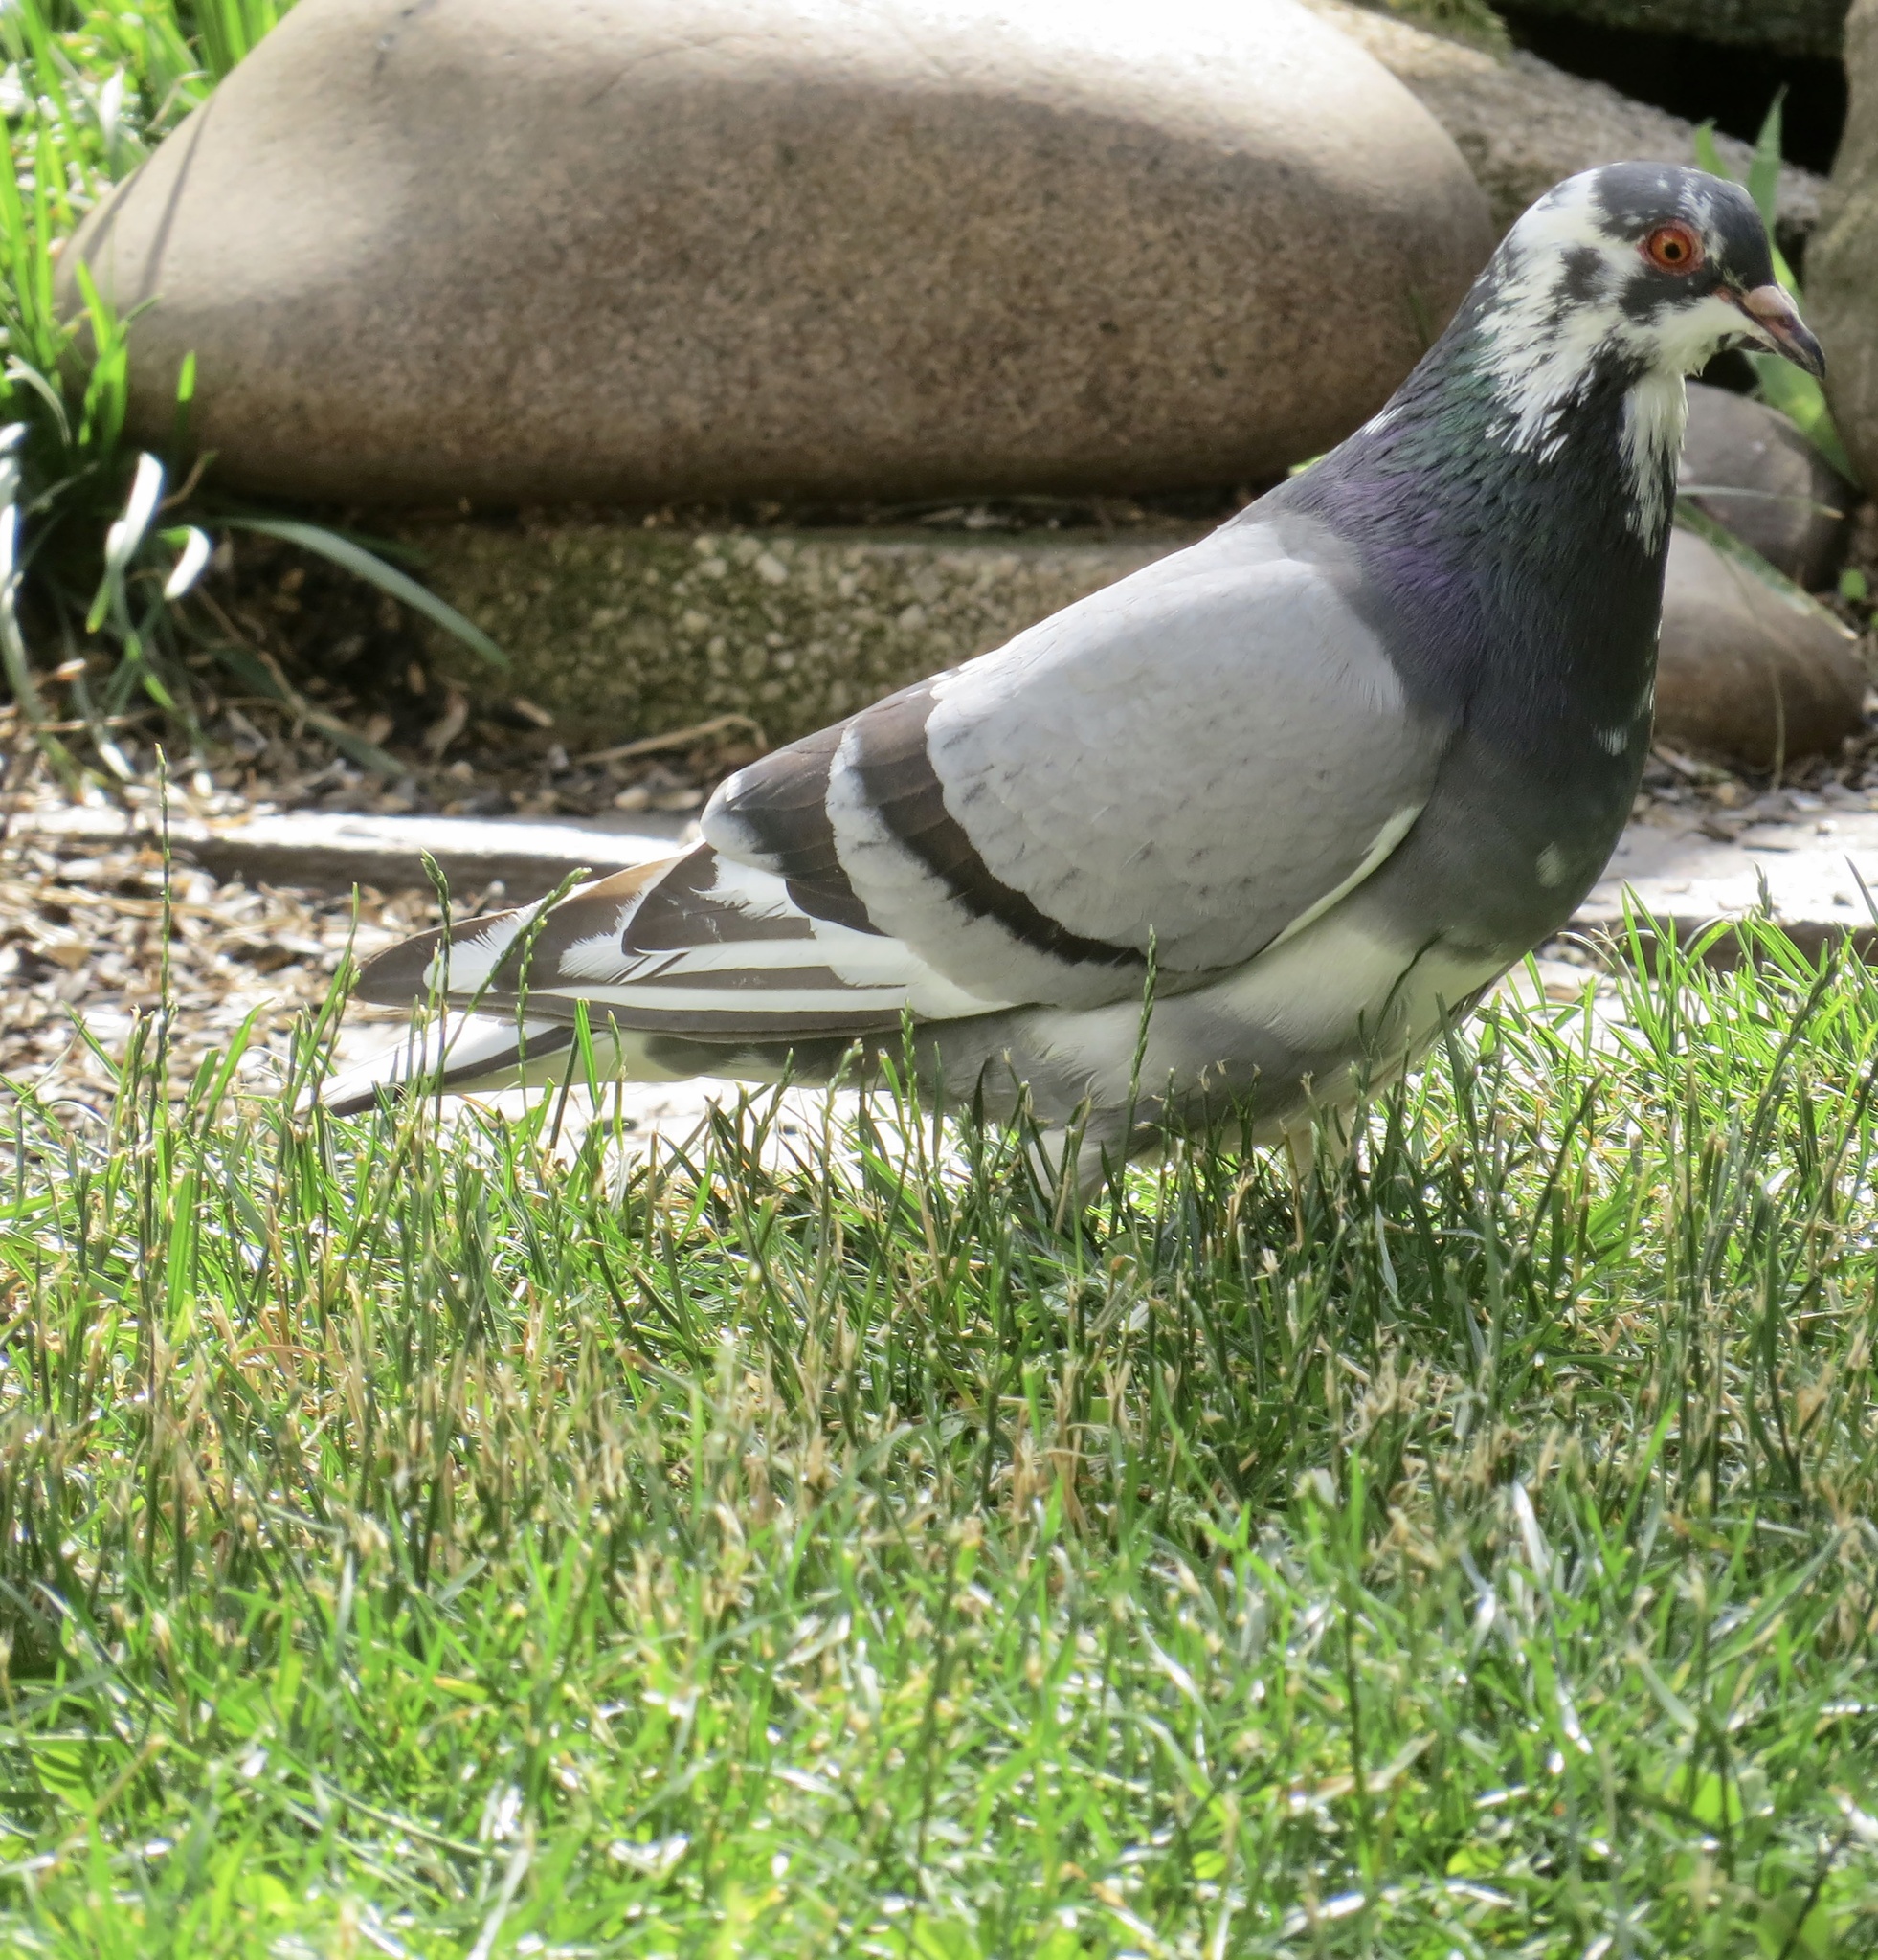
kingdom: Animalia
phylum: Chordata
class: Aves
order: Columbiformes
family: Columbidae
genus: Columba
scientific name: Columba livia
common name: Rock pigeon
